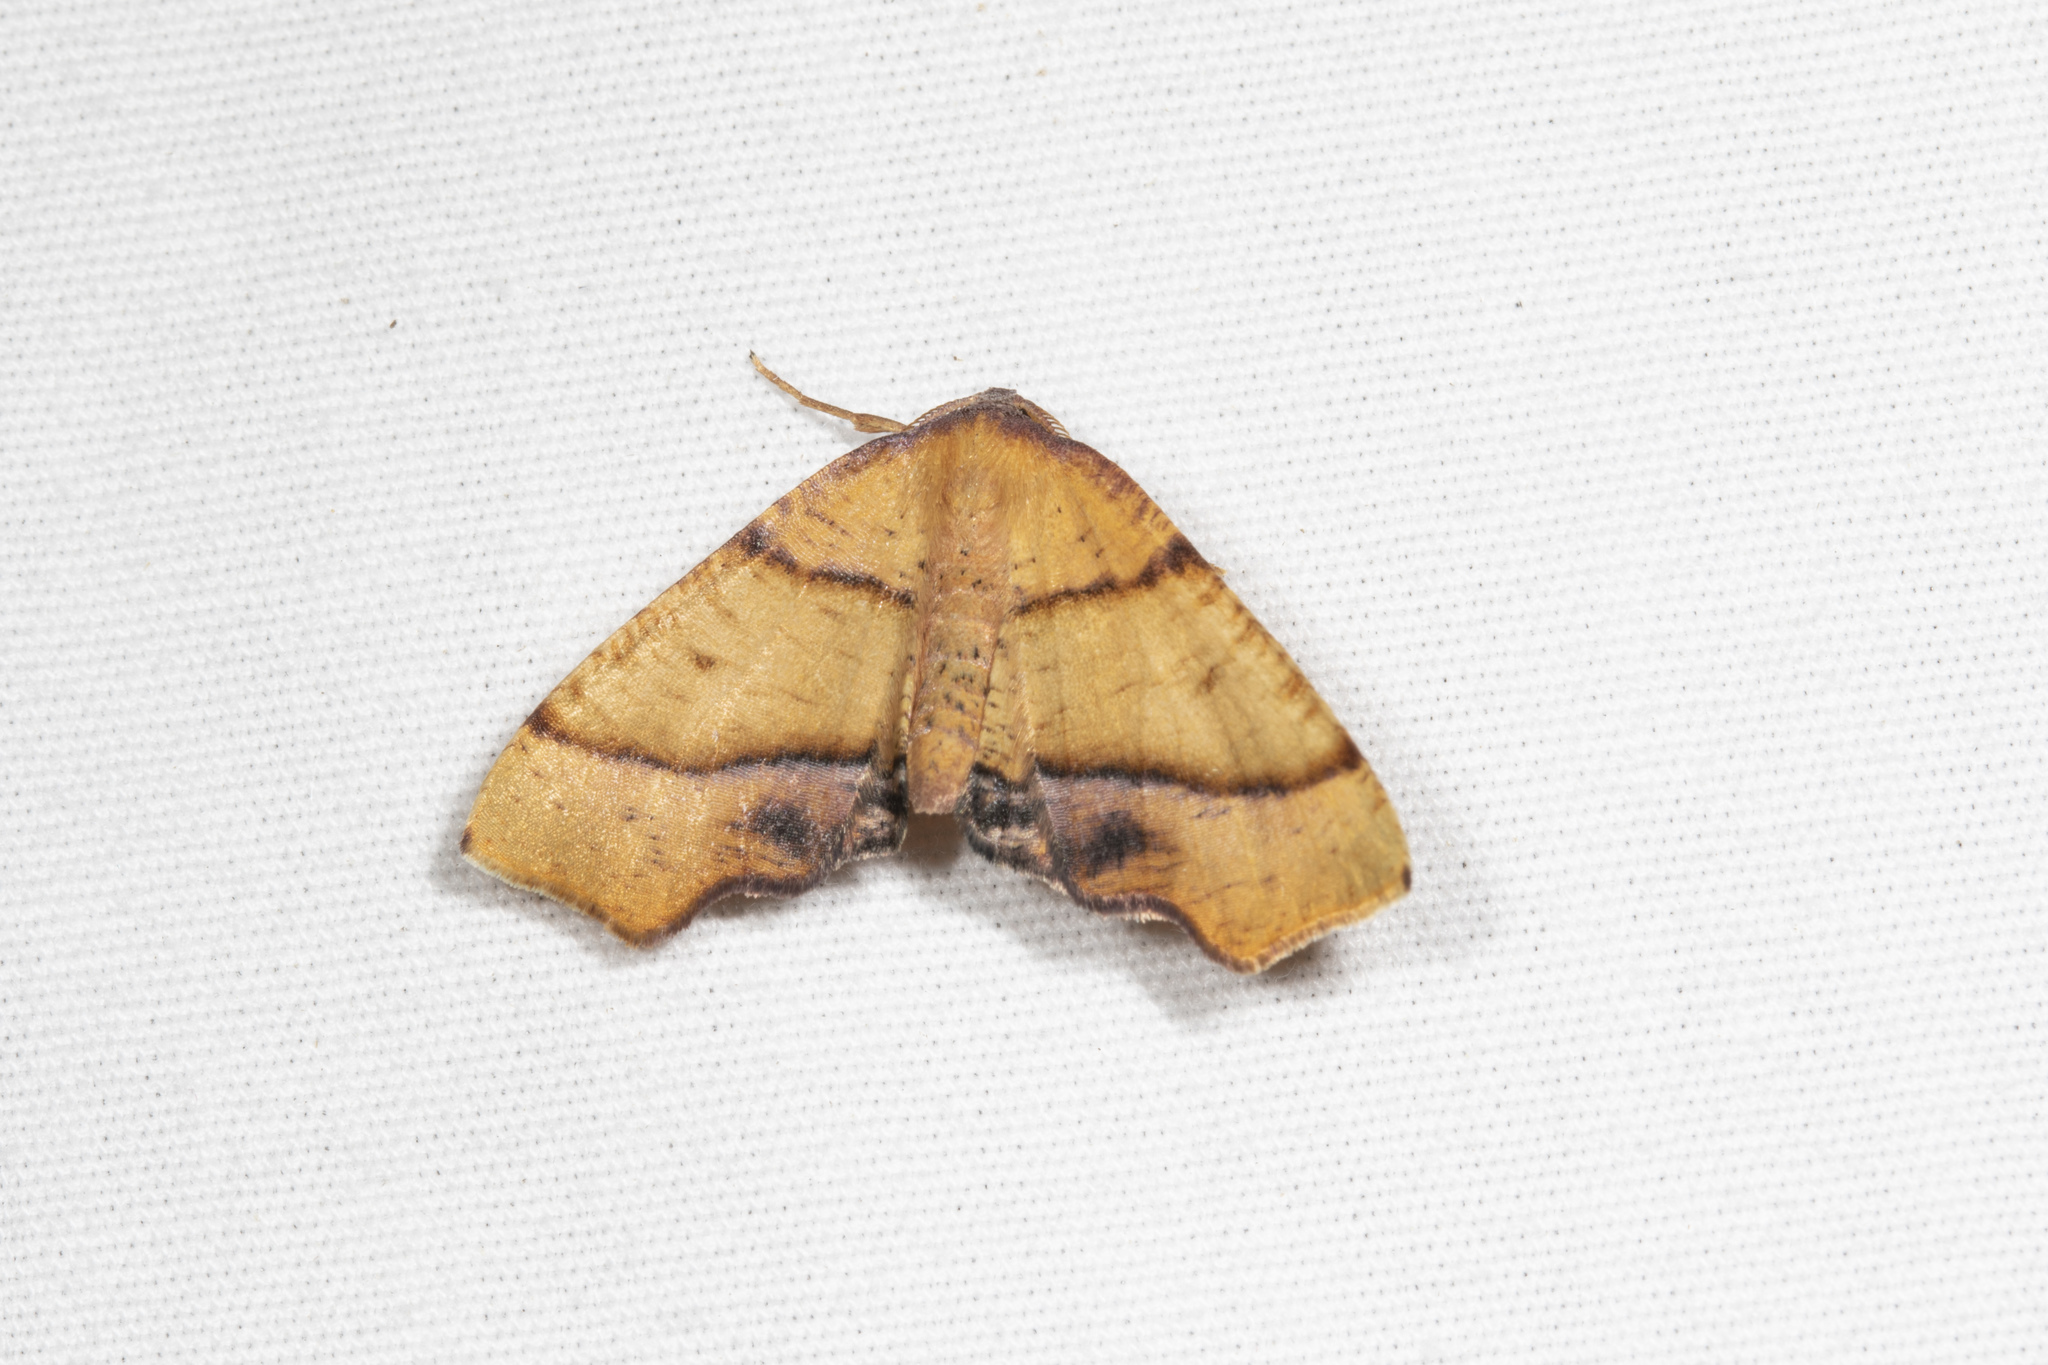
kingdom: Animalia
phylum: Arthropoda
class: Insecta
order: Lepidoptera
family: Geometridae
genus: Plagodis
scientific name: Plagodis phlogosaria
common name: Straight-lined plagodis
